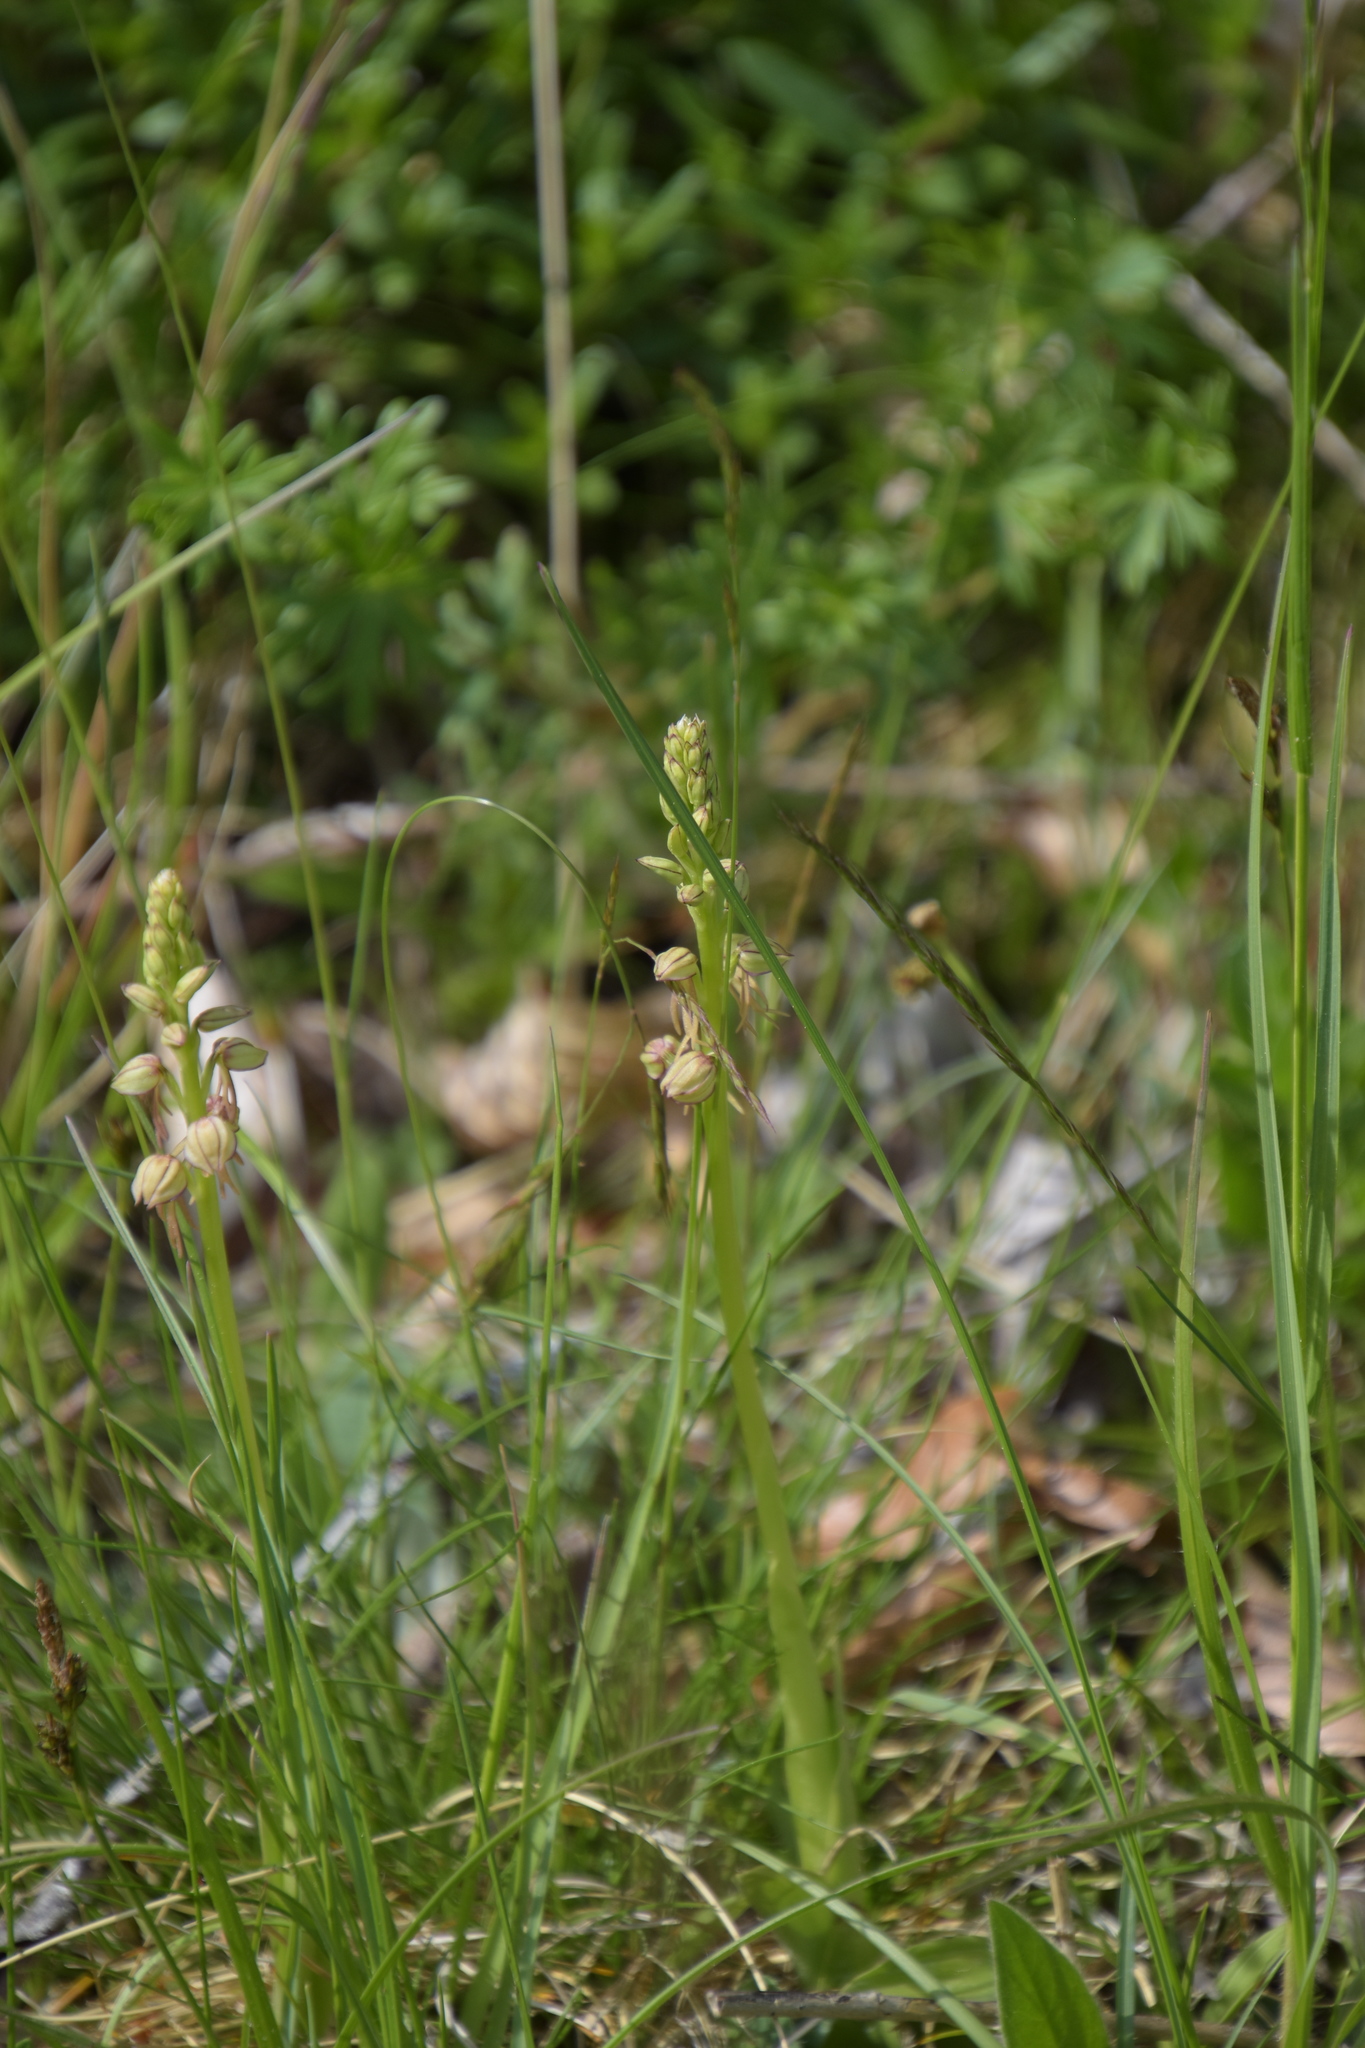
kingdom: Plantae
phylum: Tracheophyta
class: Liliopsida
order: Asparagales
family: Orchidaceae
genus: Orchis
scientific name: Orchis anthropophora
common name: Man orchid
